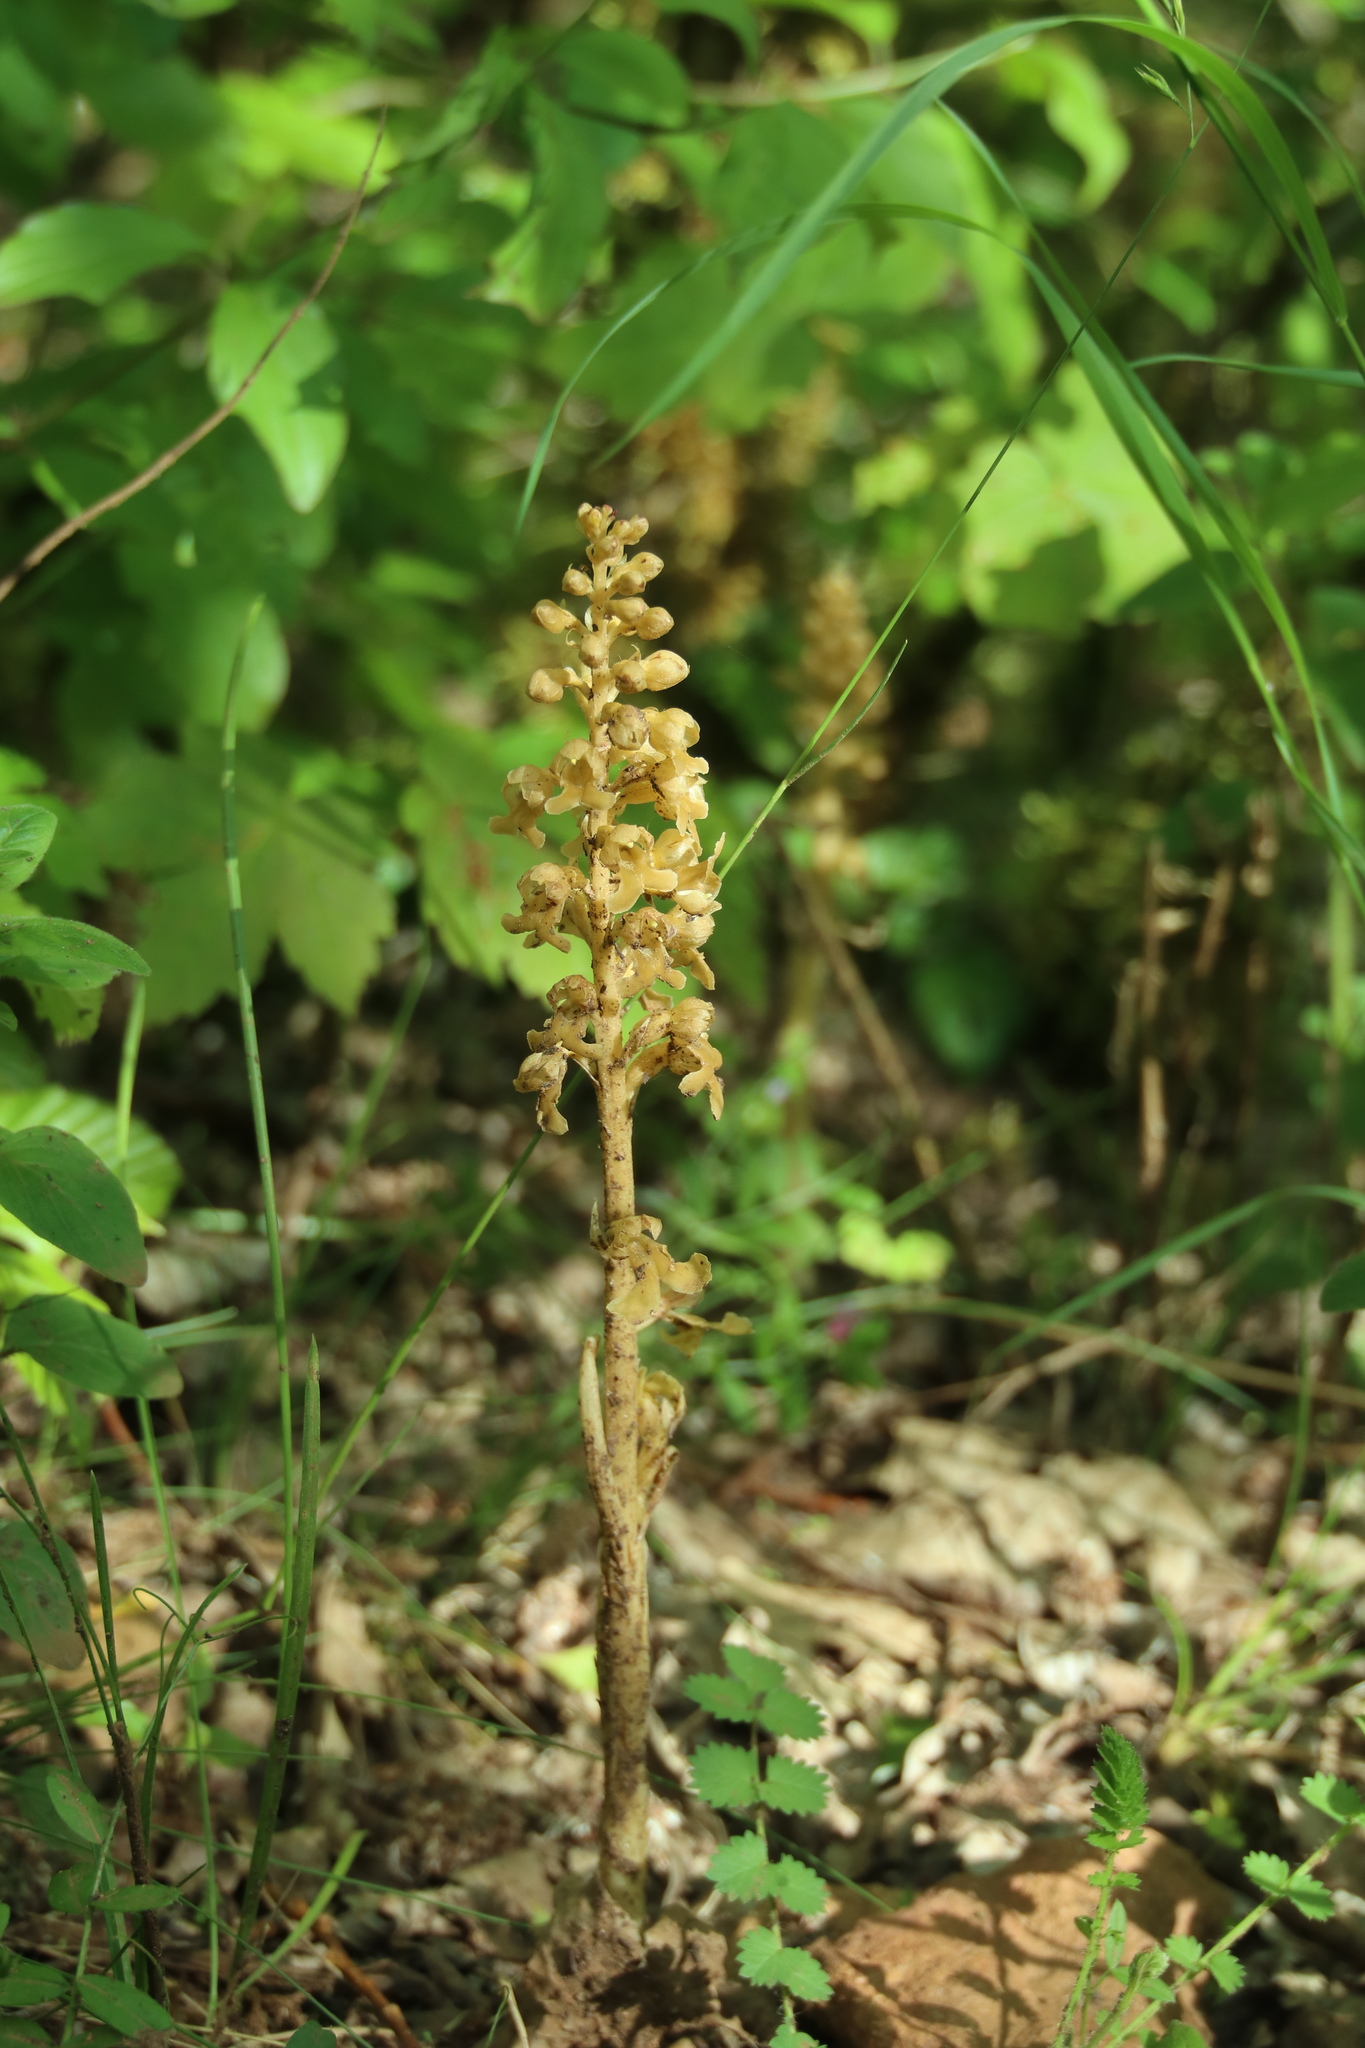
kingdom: Plantae
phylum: Tracheophyta
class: Liliopsida
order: Asparagales
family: Orchidaceae
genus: Neottia
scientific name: Neottia nidus-avis
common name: Bird's-nest orchid
